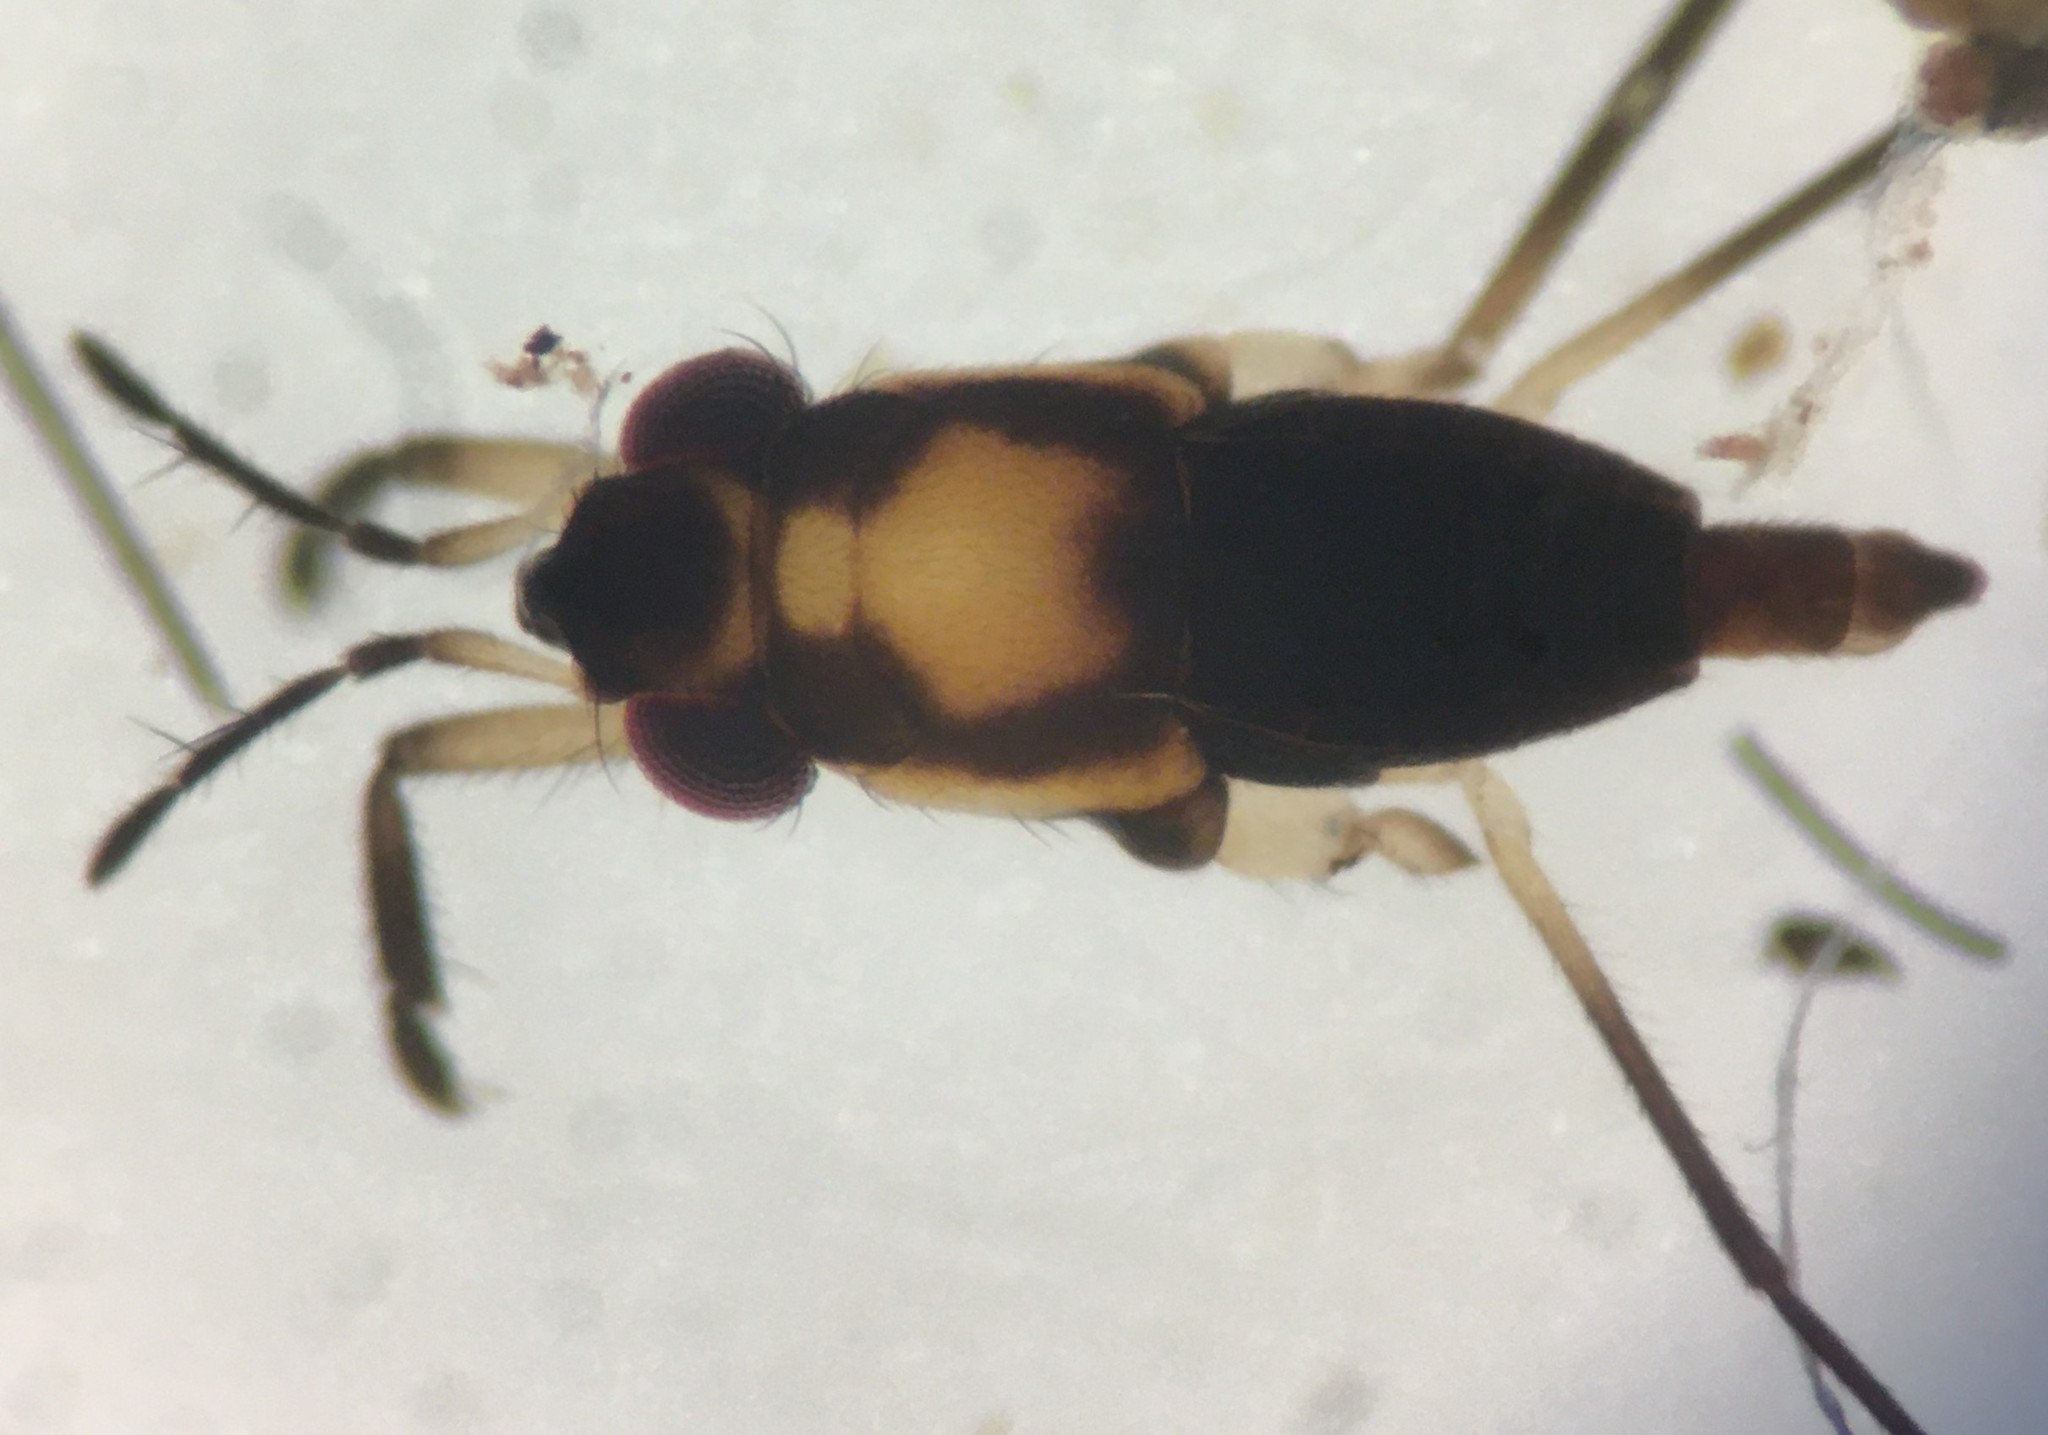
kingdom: Animalia
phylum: Arthropoda
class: Insecta
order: Hemiptera
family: Gerridae
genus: Rheumatobates
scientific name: Rheumatobates minutus
